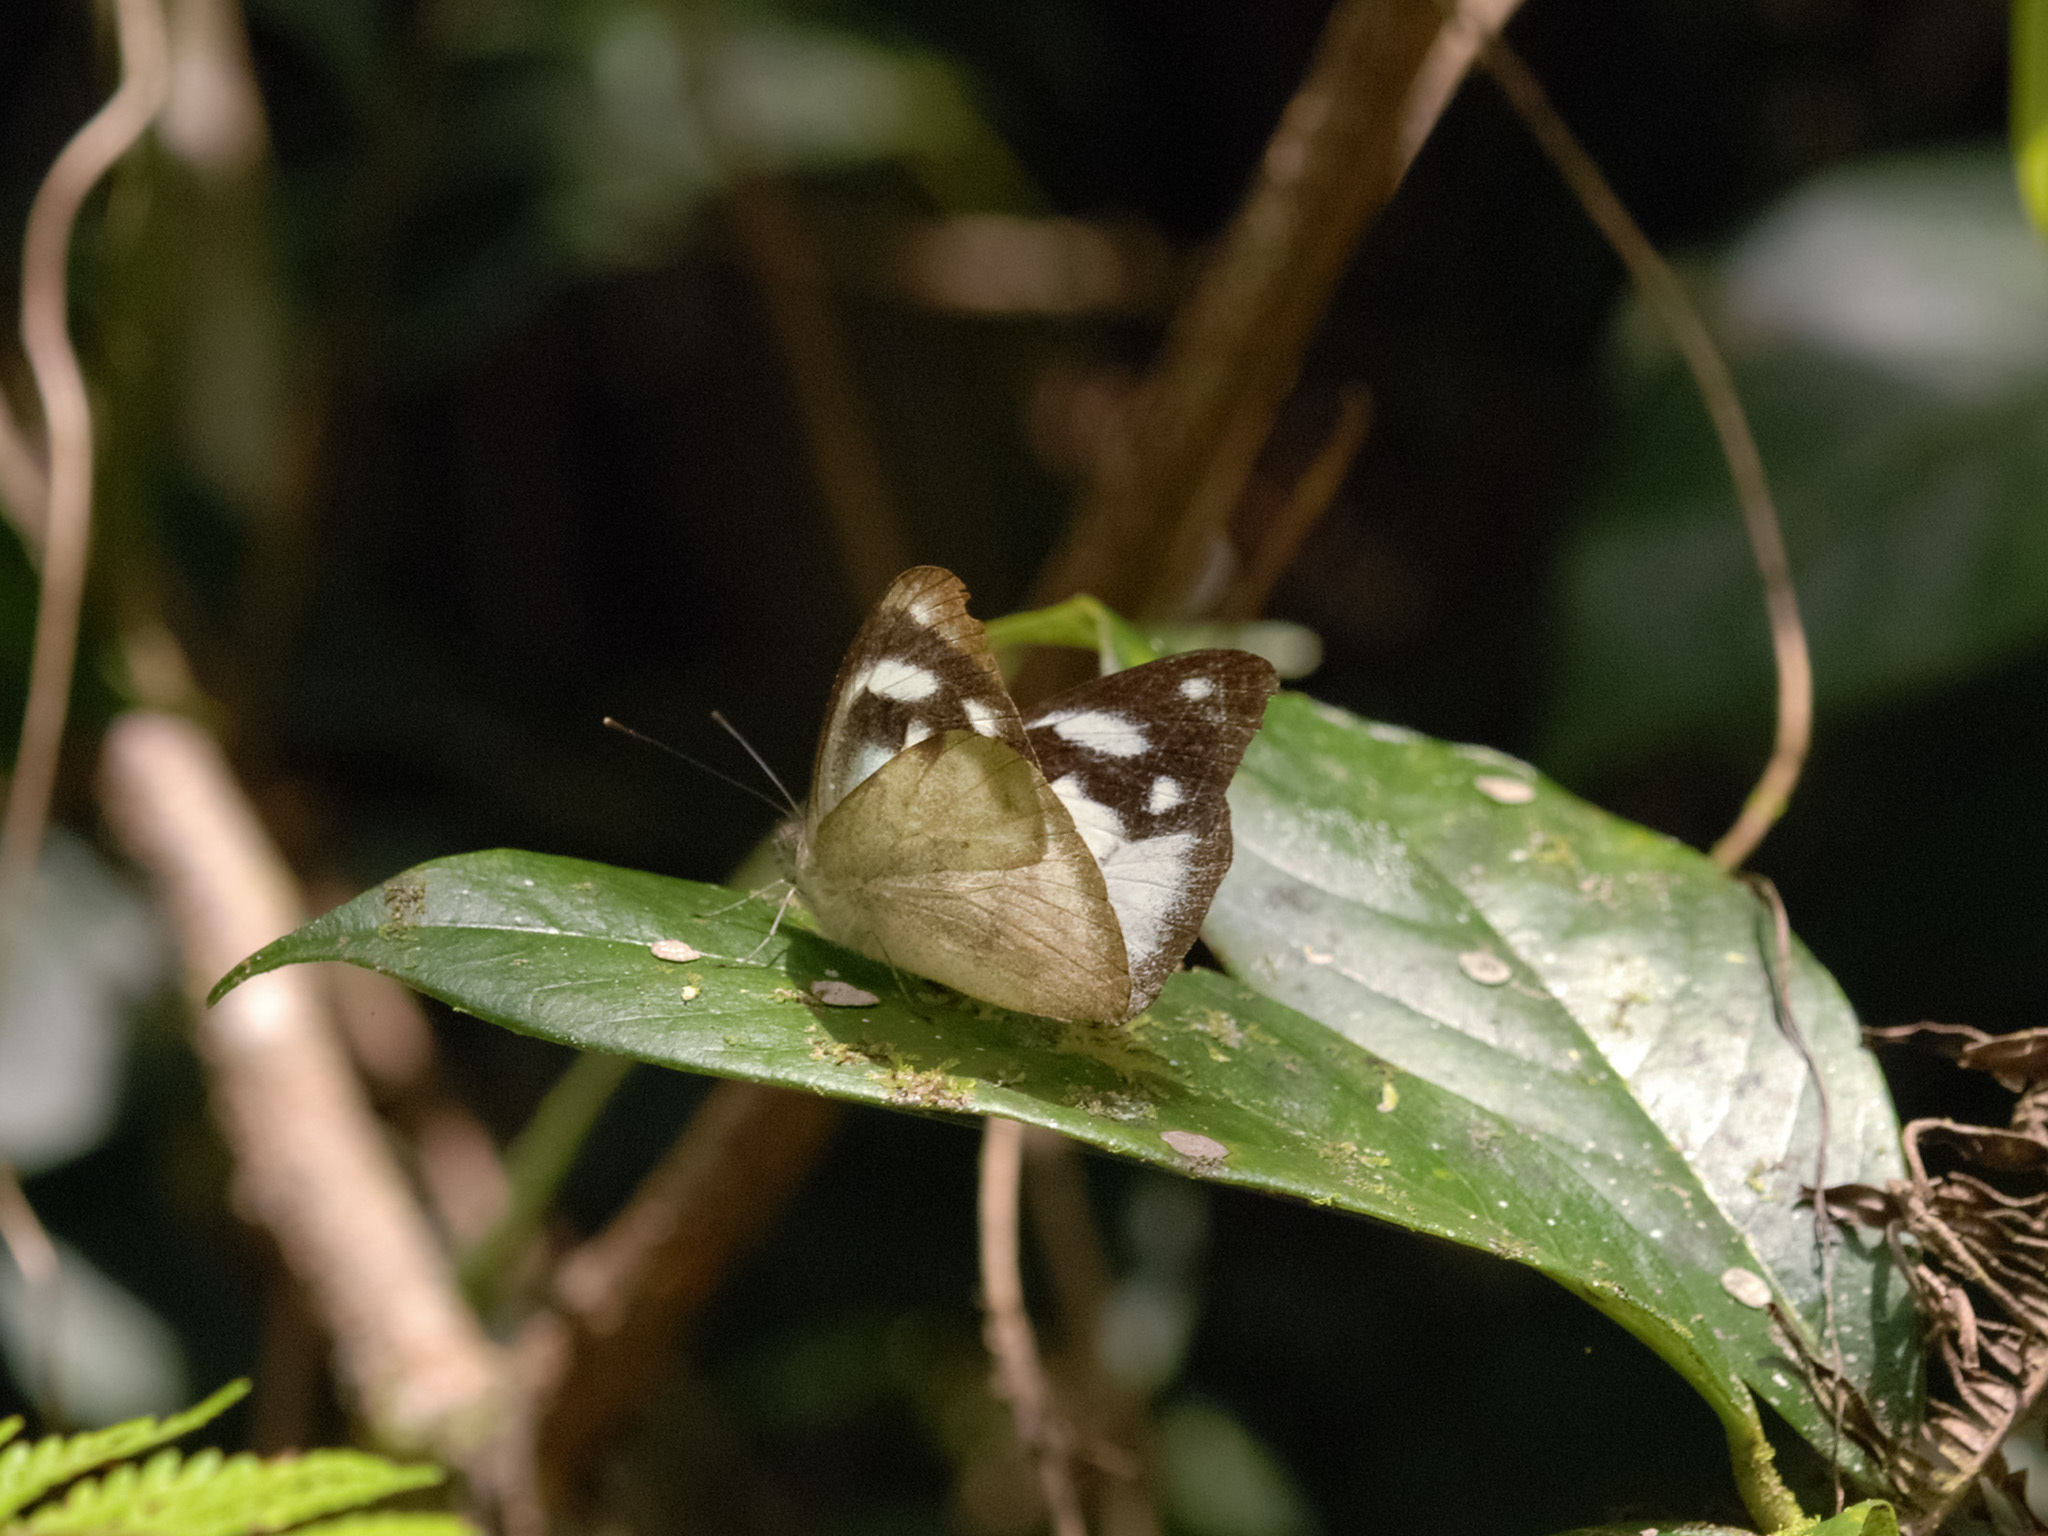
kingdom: Animalia
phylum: Arthropoda
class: Insecta
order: Lepidoptera
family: Pieridae
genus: Appias
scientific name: Appias pandione
